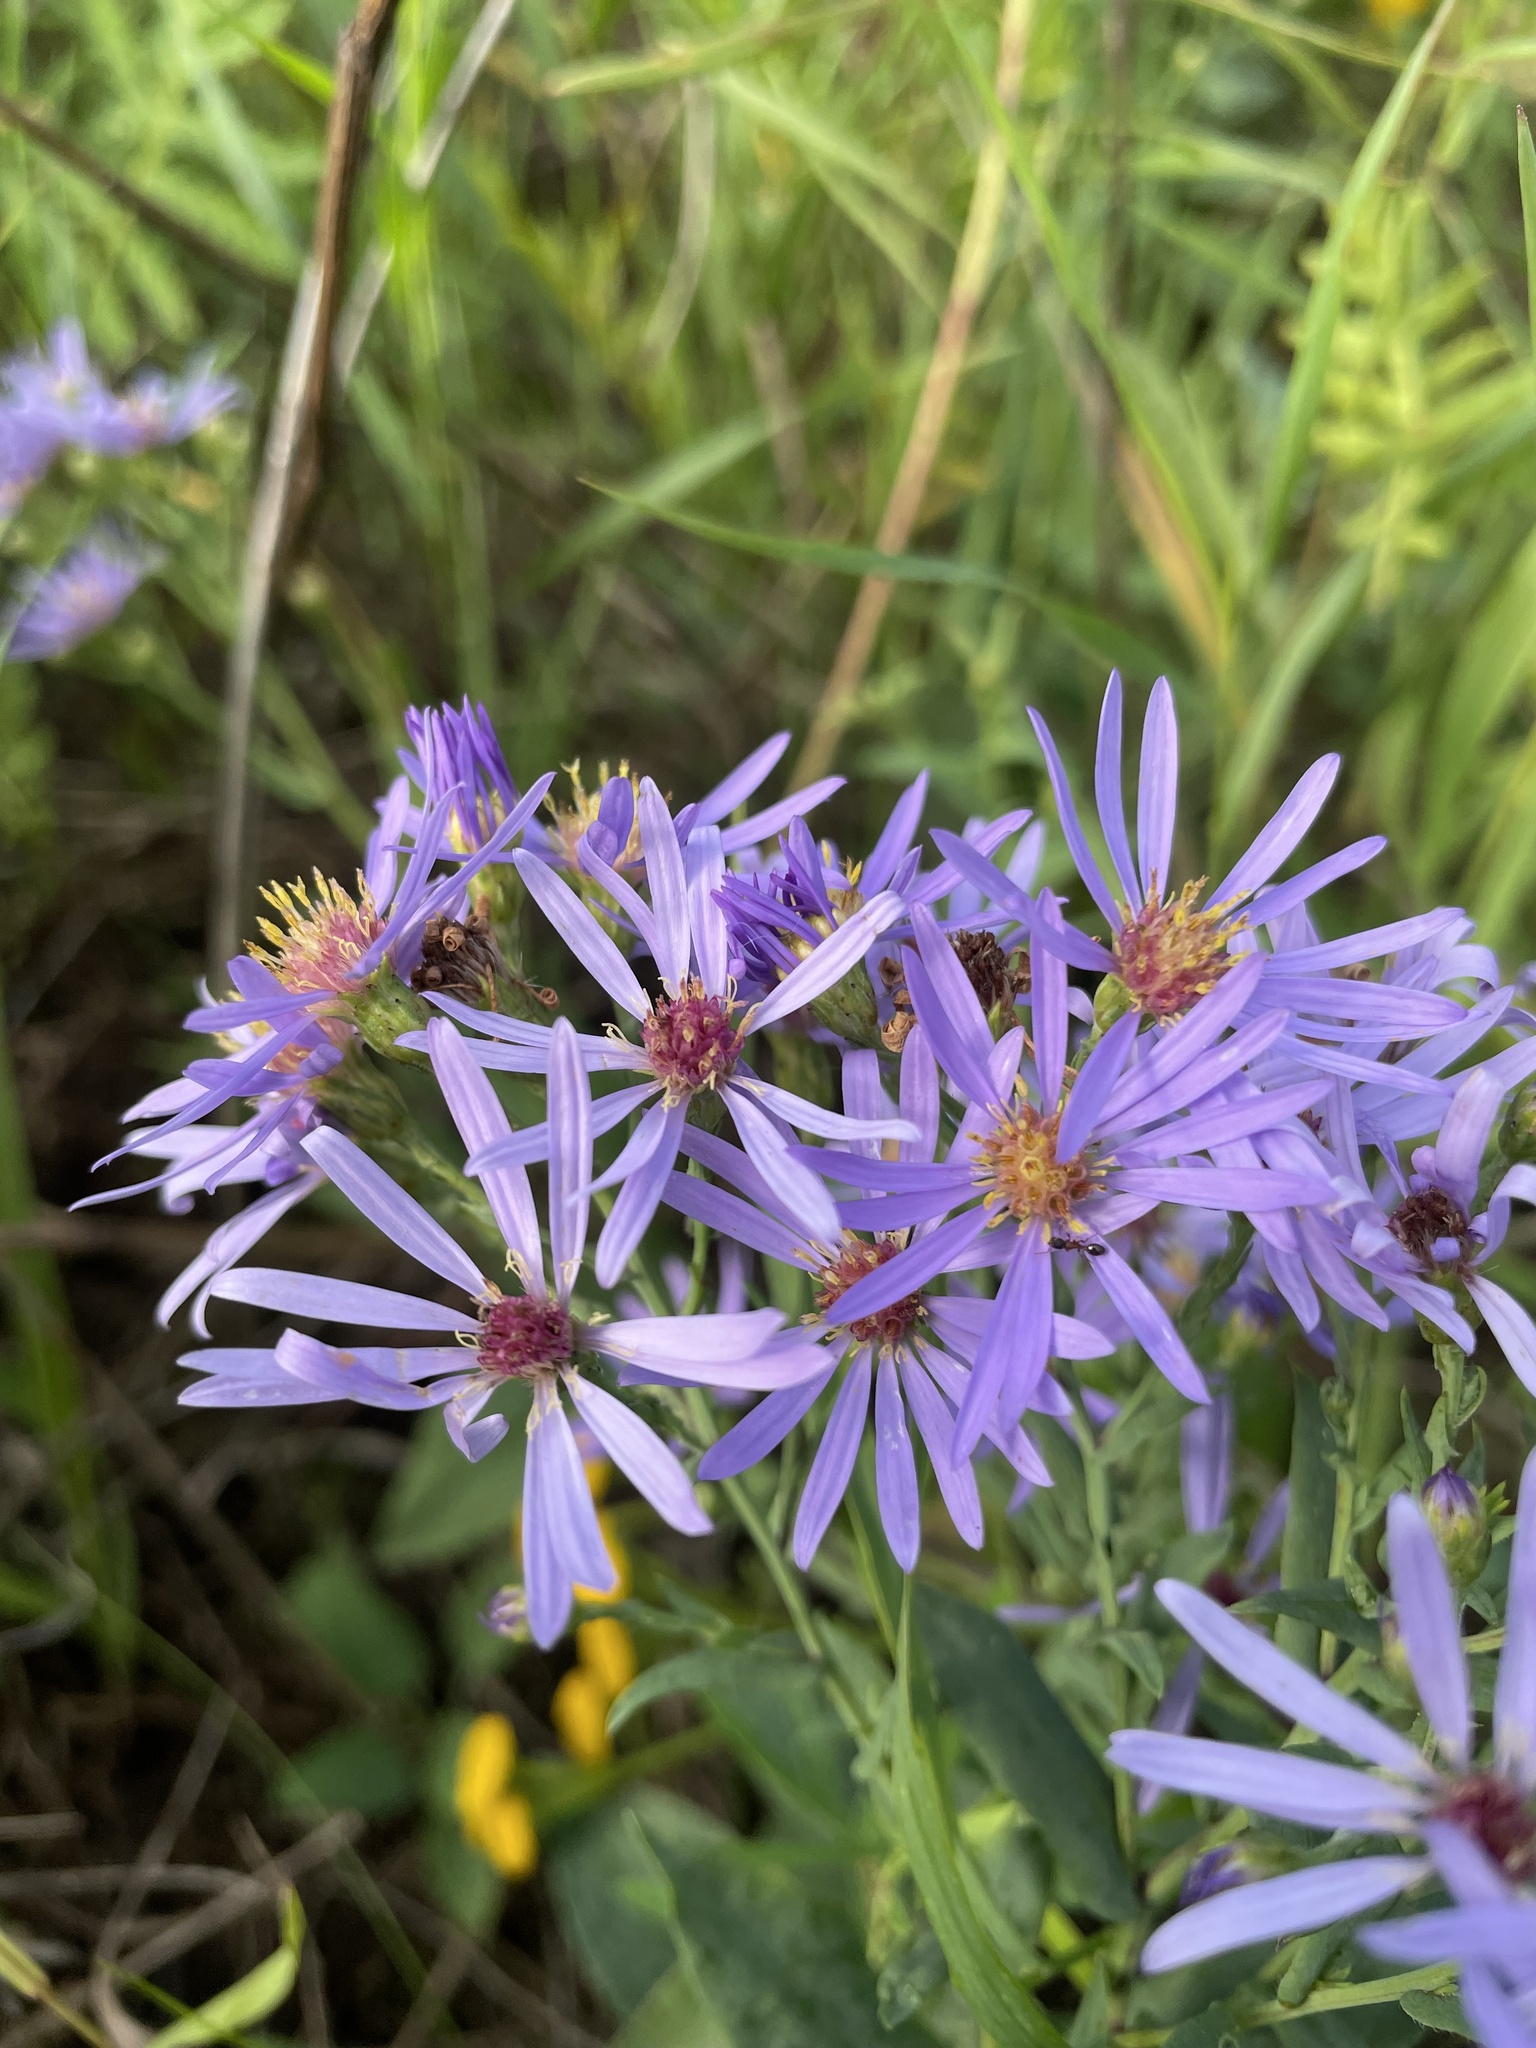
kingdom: Plantae
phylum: Tracheophyta
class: Magnoliopsida
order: Asterales
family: Asteraceae
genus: Symphyotrichum
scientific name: Symphyotrichum laeve
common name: Glaucous aster
